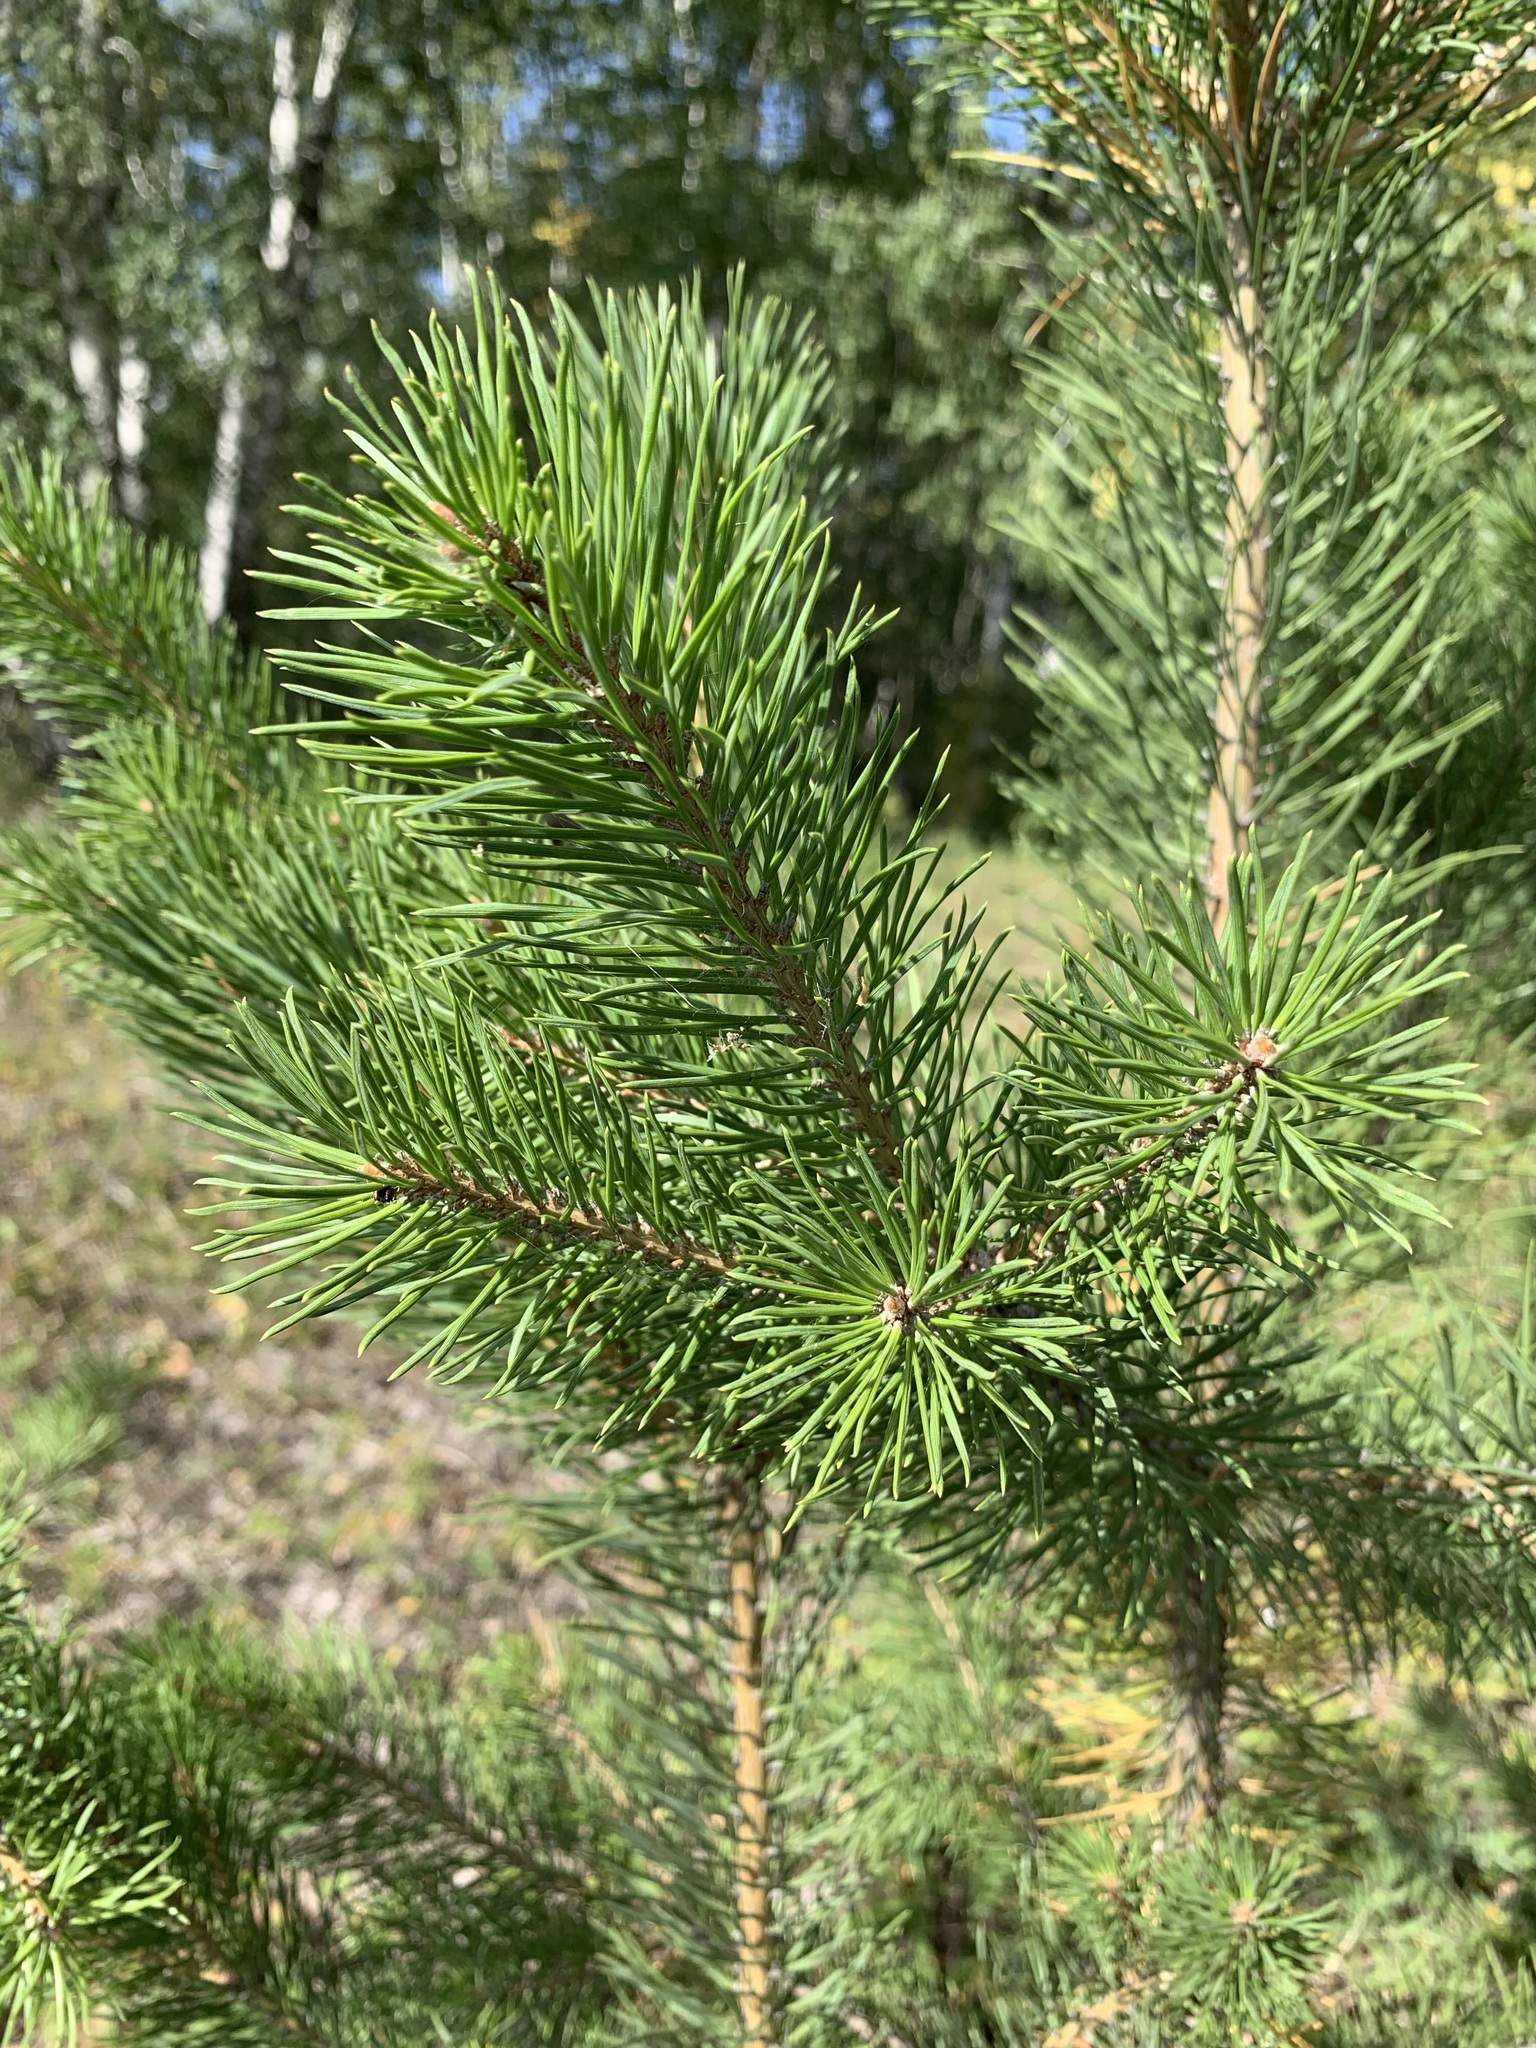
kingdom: Plantae
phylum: Tracheophyta
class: Pinopsida
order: Pinales
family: Pinaceae
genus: Pinus
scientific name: Pinus sylvestris
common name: Scots pine
